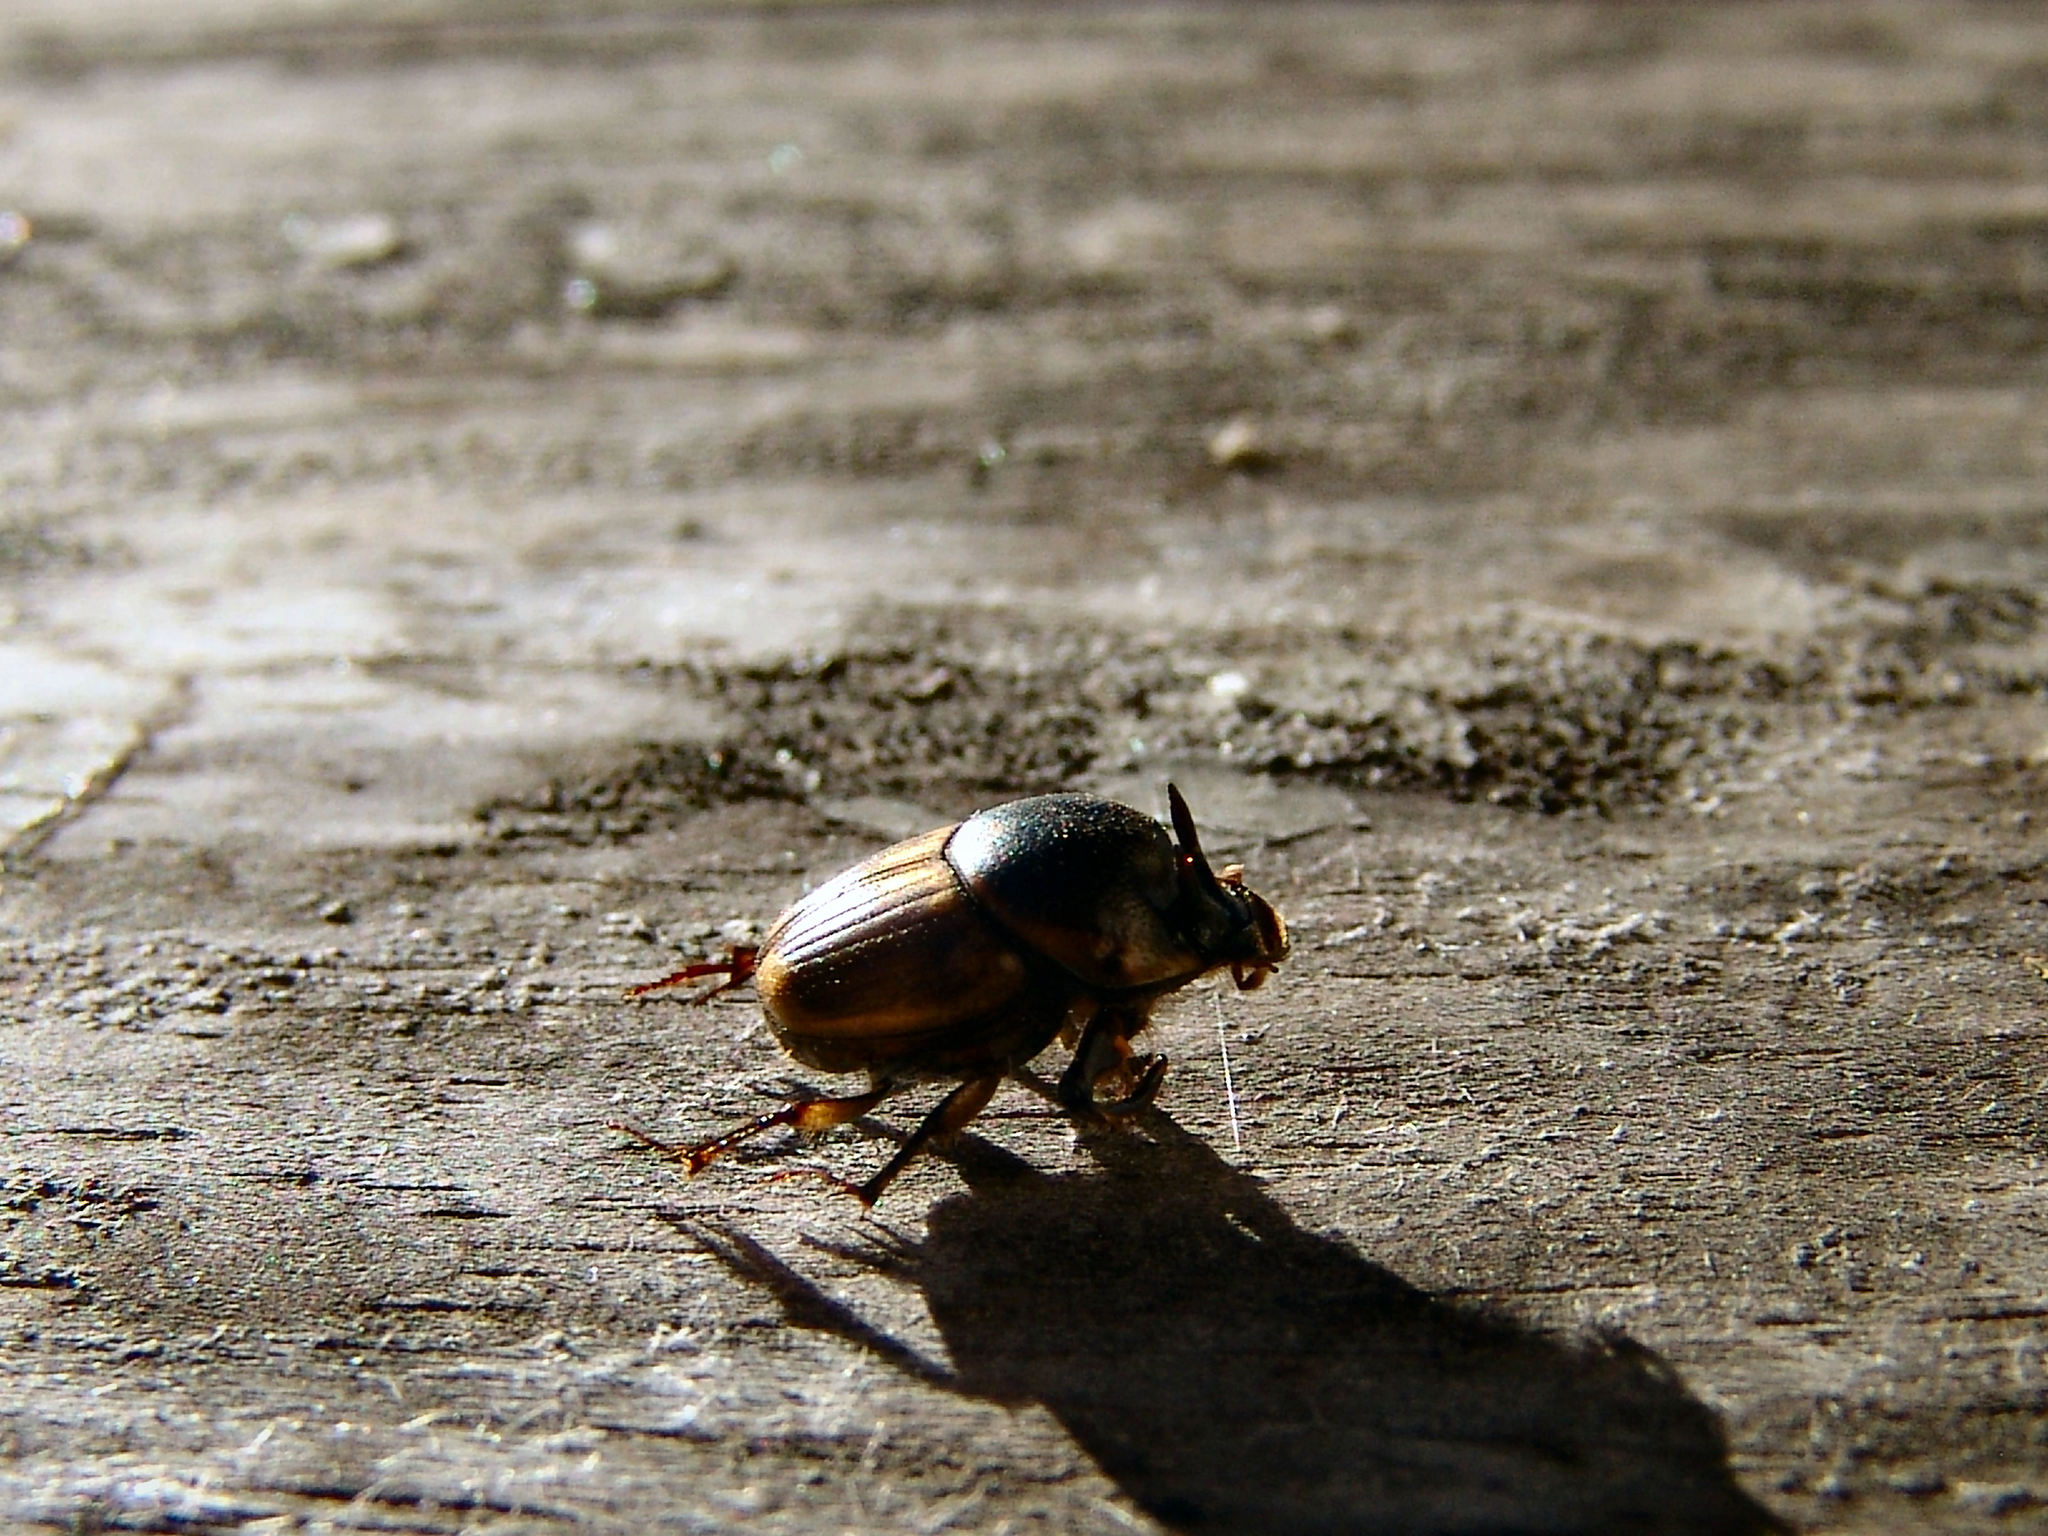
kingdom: Animalia
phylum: Arthropoda
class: Insecta
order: Coleoptera
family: Scarabaeidae
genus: Digitonthophagus
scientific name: Digitonthophagus gazella
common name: Brown dung beetle
